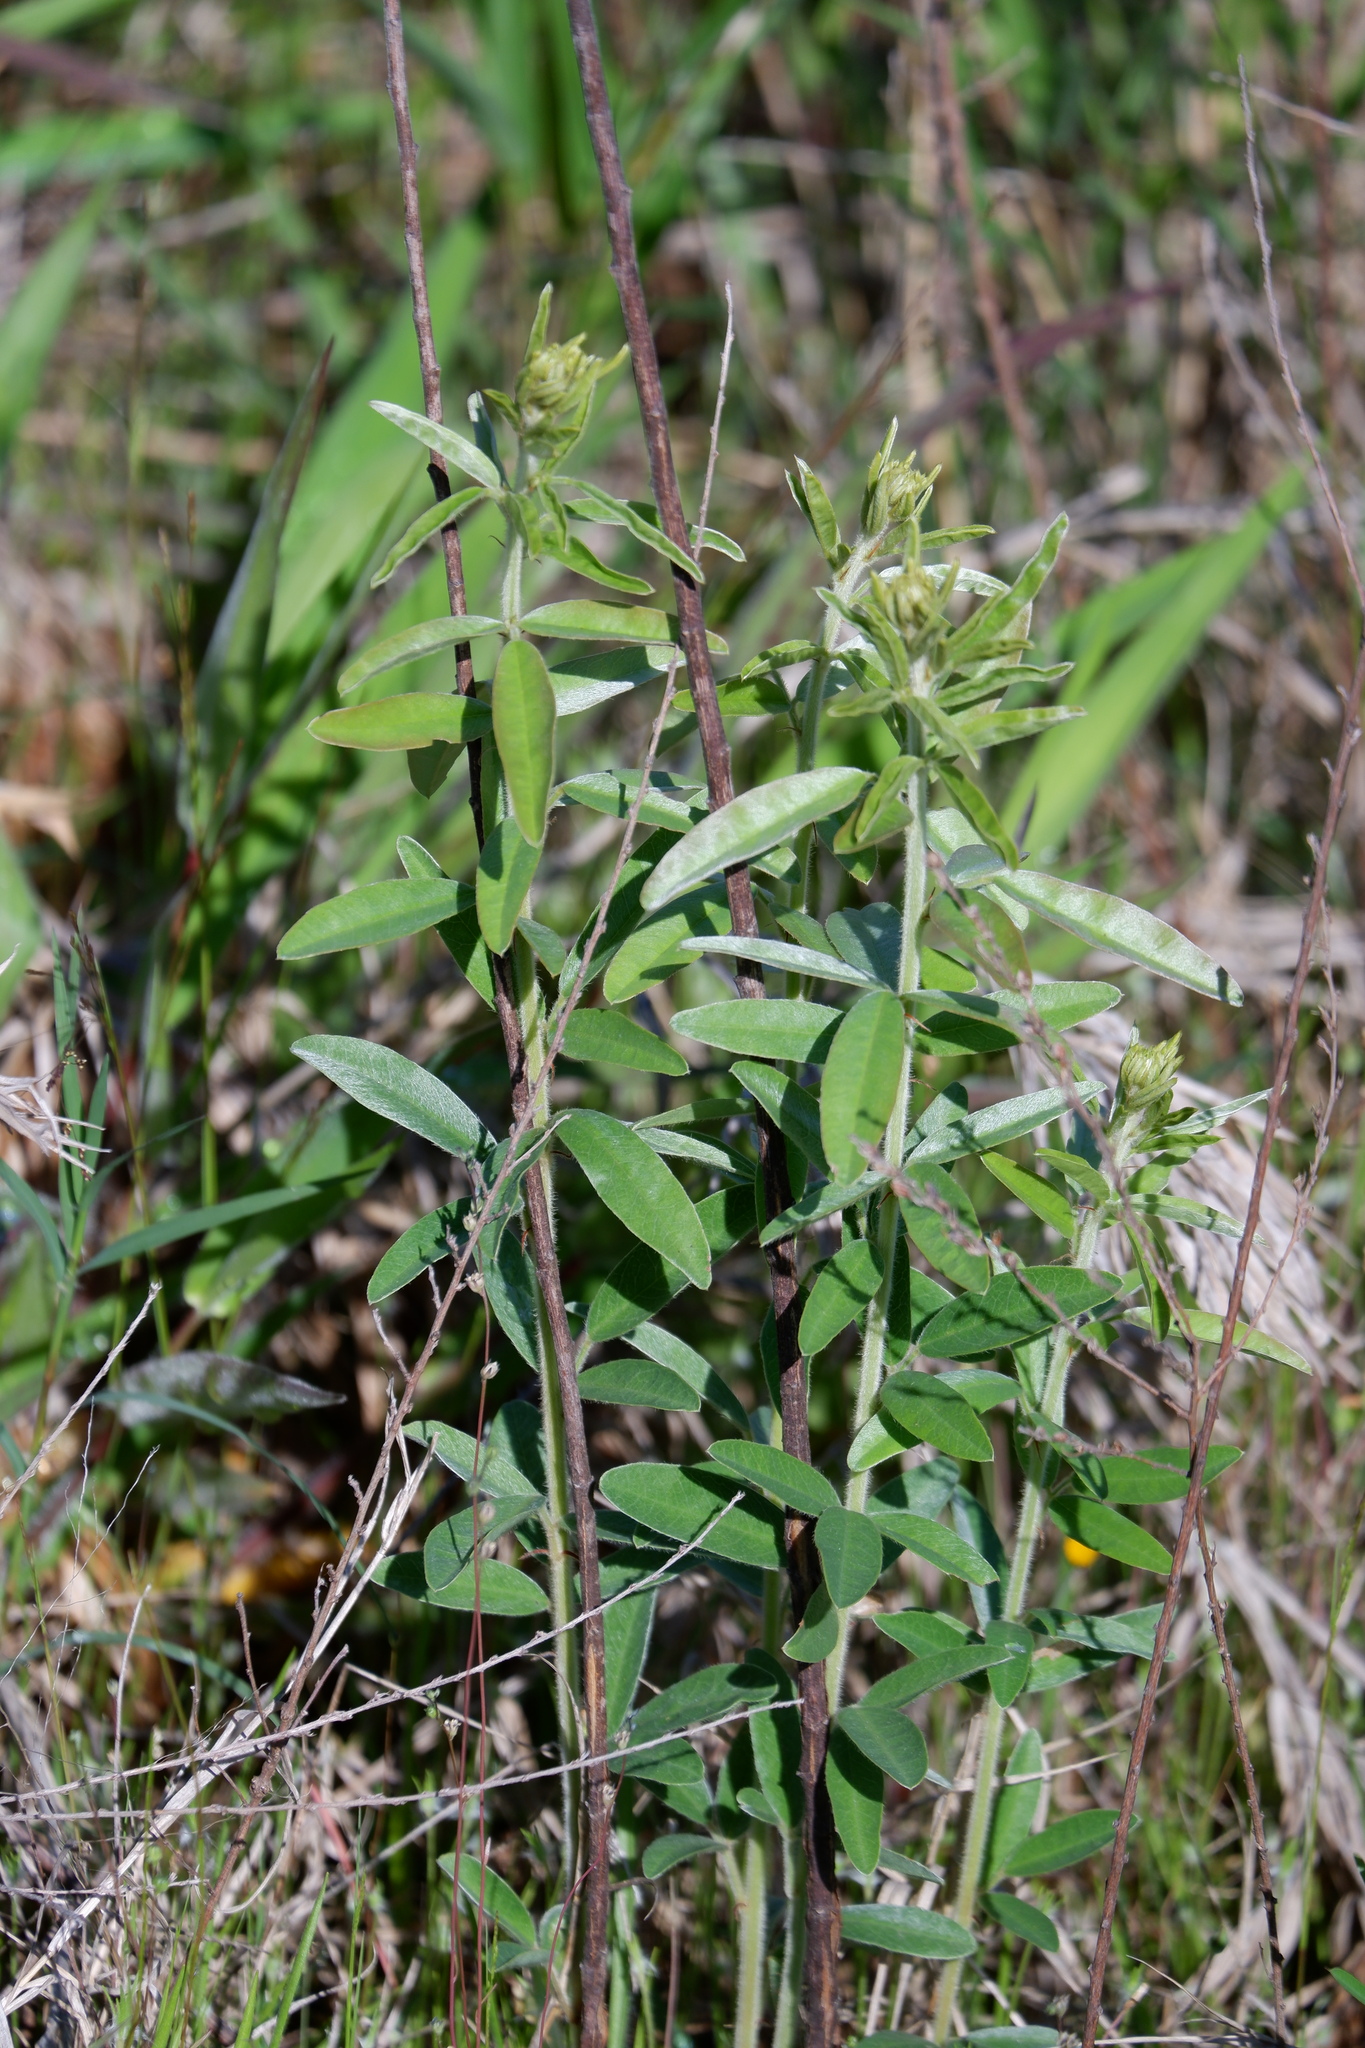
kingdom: Plantae
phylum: Tracheophyta
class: Magnoliopsida
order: Fabales
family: Fabaceae
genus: Lespedeza
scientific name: Lespedeza capitata
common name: Dusty clover
